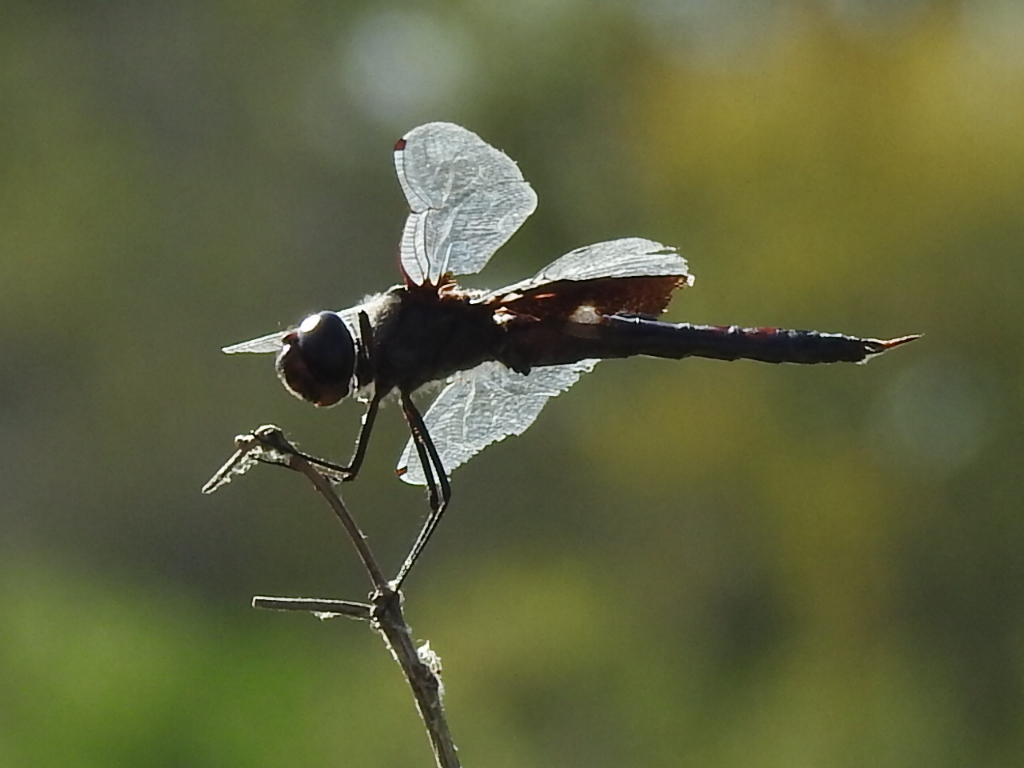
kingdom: Animalia
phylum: Arthropoda
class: Insecta
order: Odonata
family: Libellulidae
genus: Tramea
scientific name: Tramea lacerata
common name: Black saddlebags
